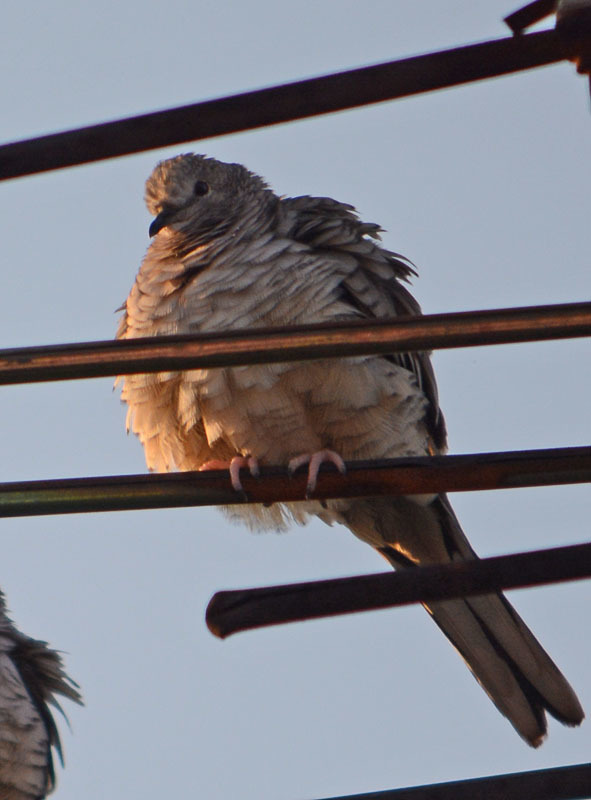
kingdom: Animalia
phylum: Chordata
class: Aves
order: Columbiformes
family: Columbidae
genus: Columbina
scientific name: Columbina inca
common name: Inca dove
